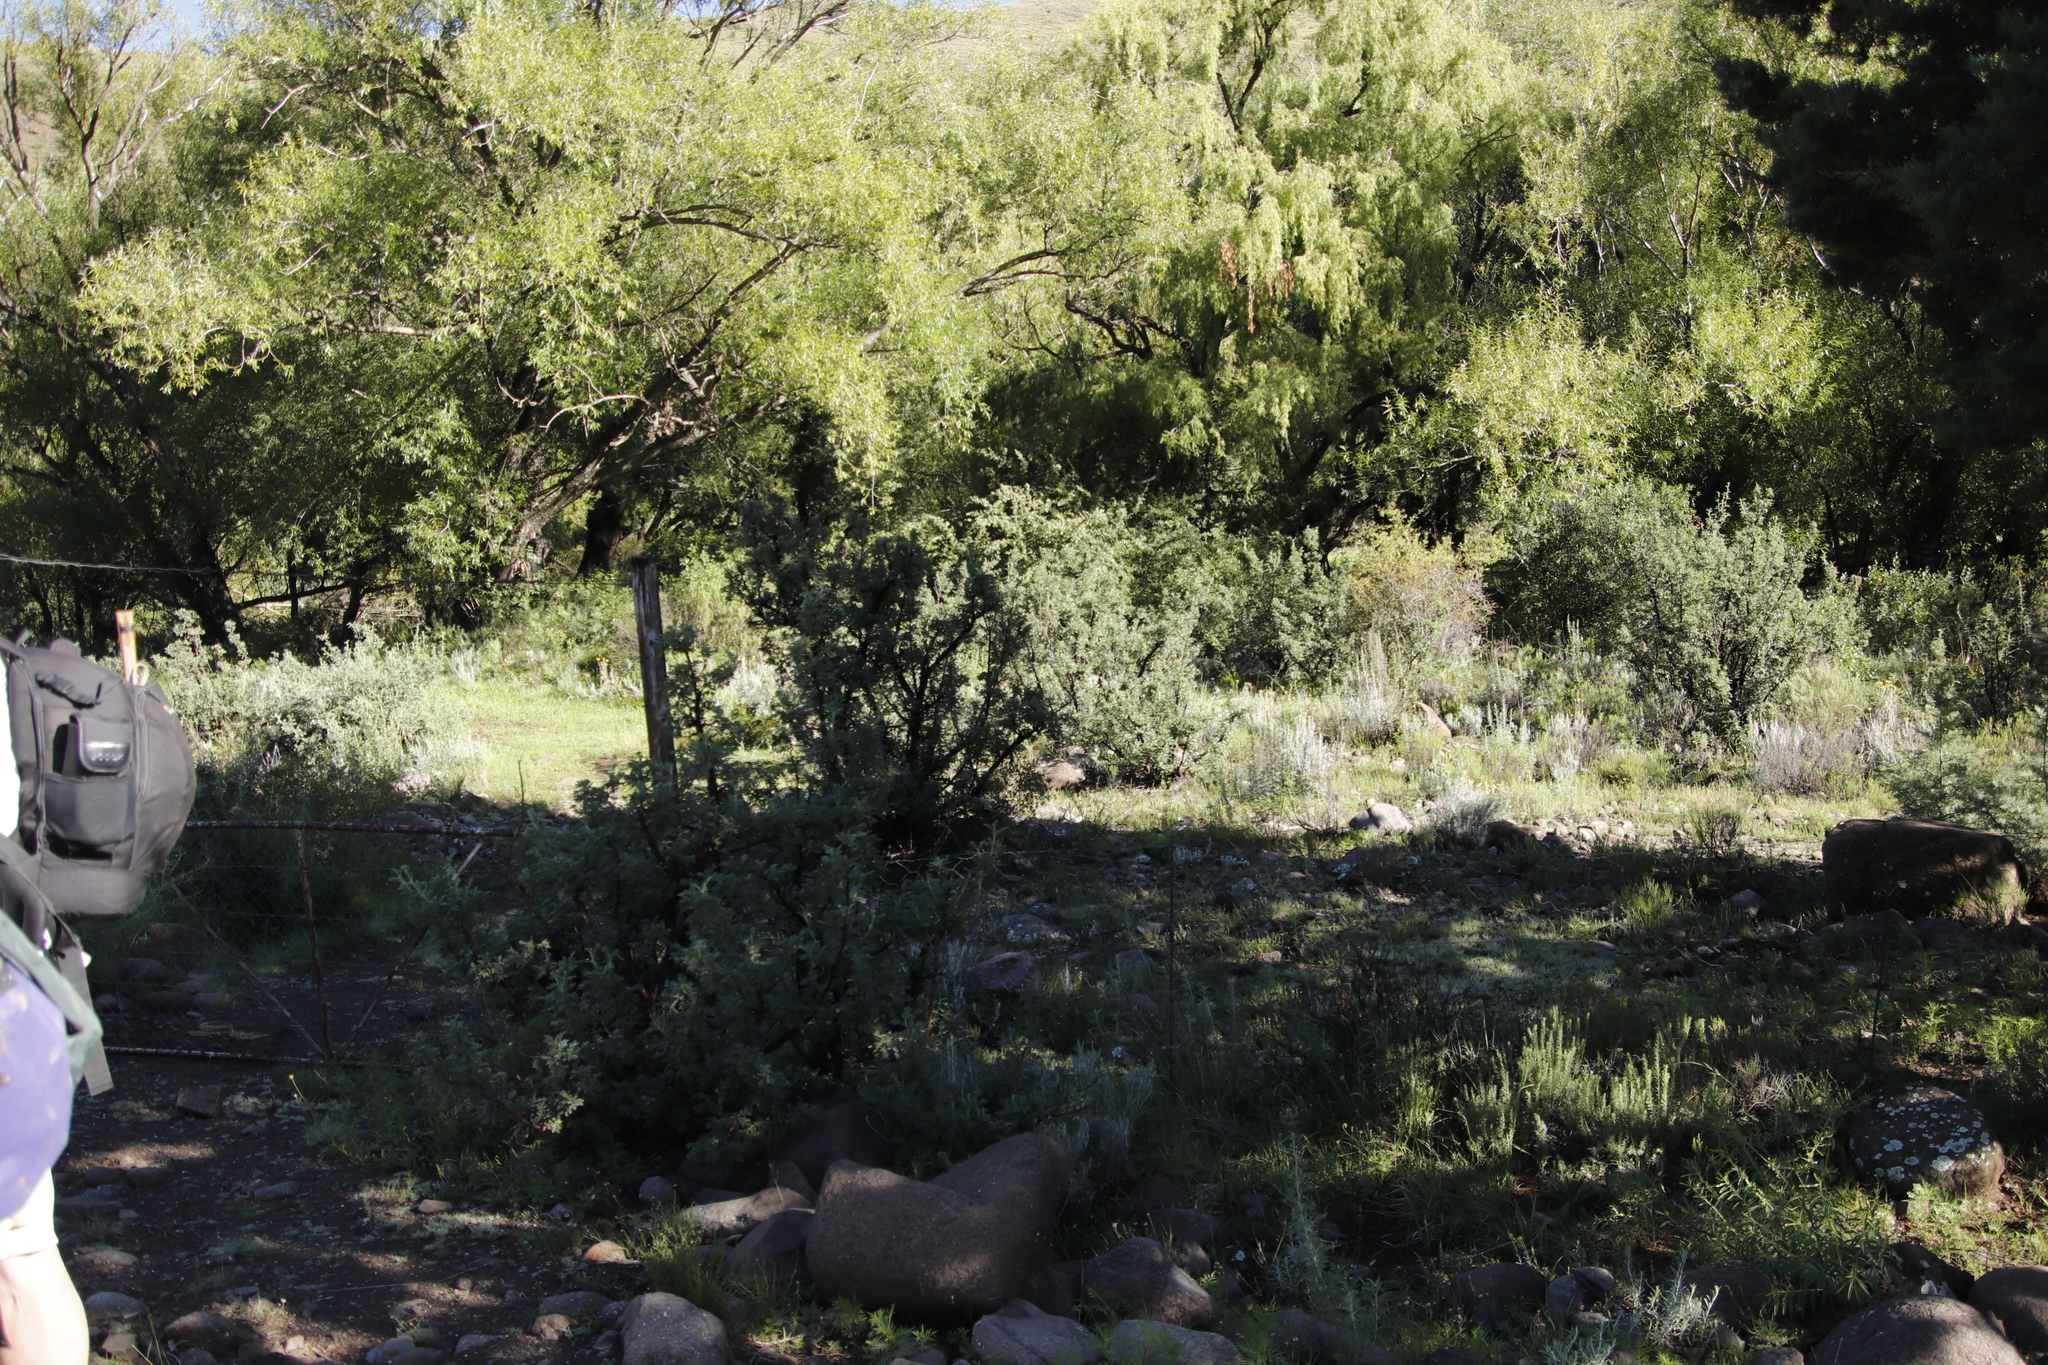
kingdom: Plantae
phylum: Tracheophyta
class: Magnoliopsida
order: Rosales
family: Rosaceae
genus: Leucosidea
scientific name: Leucosidea sericea
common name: Oldwood
